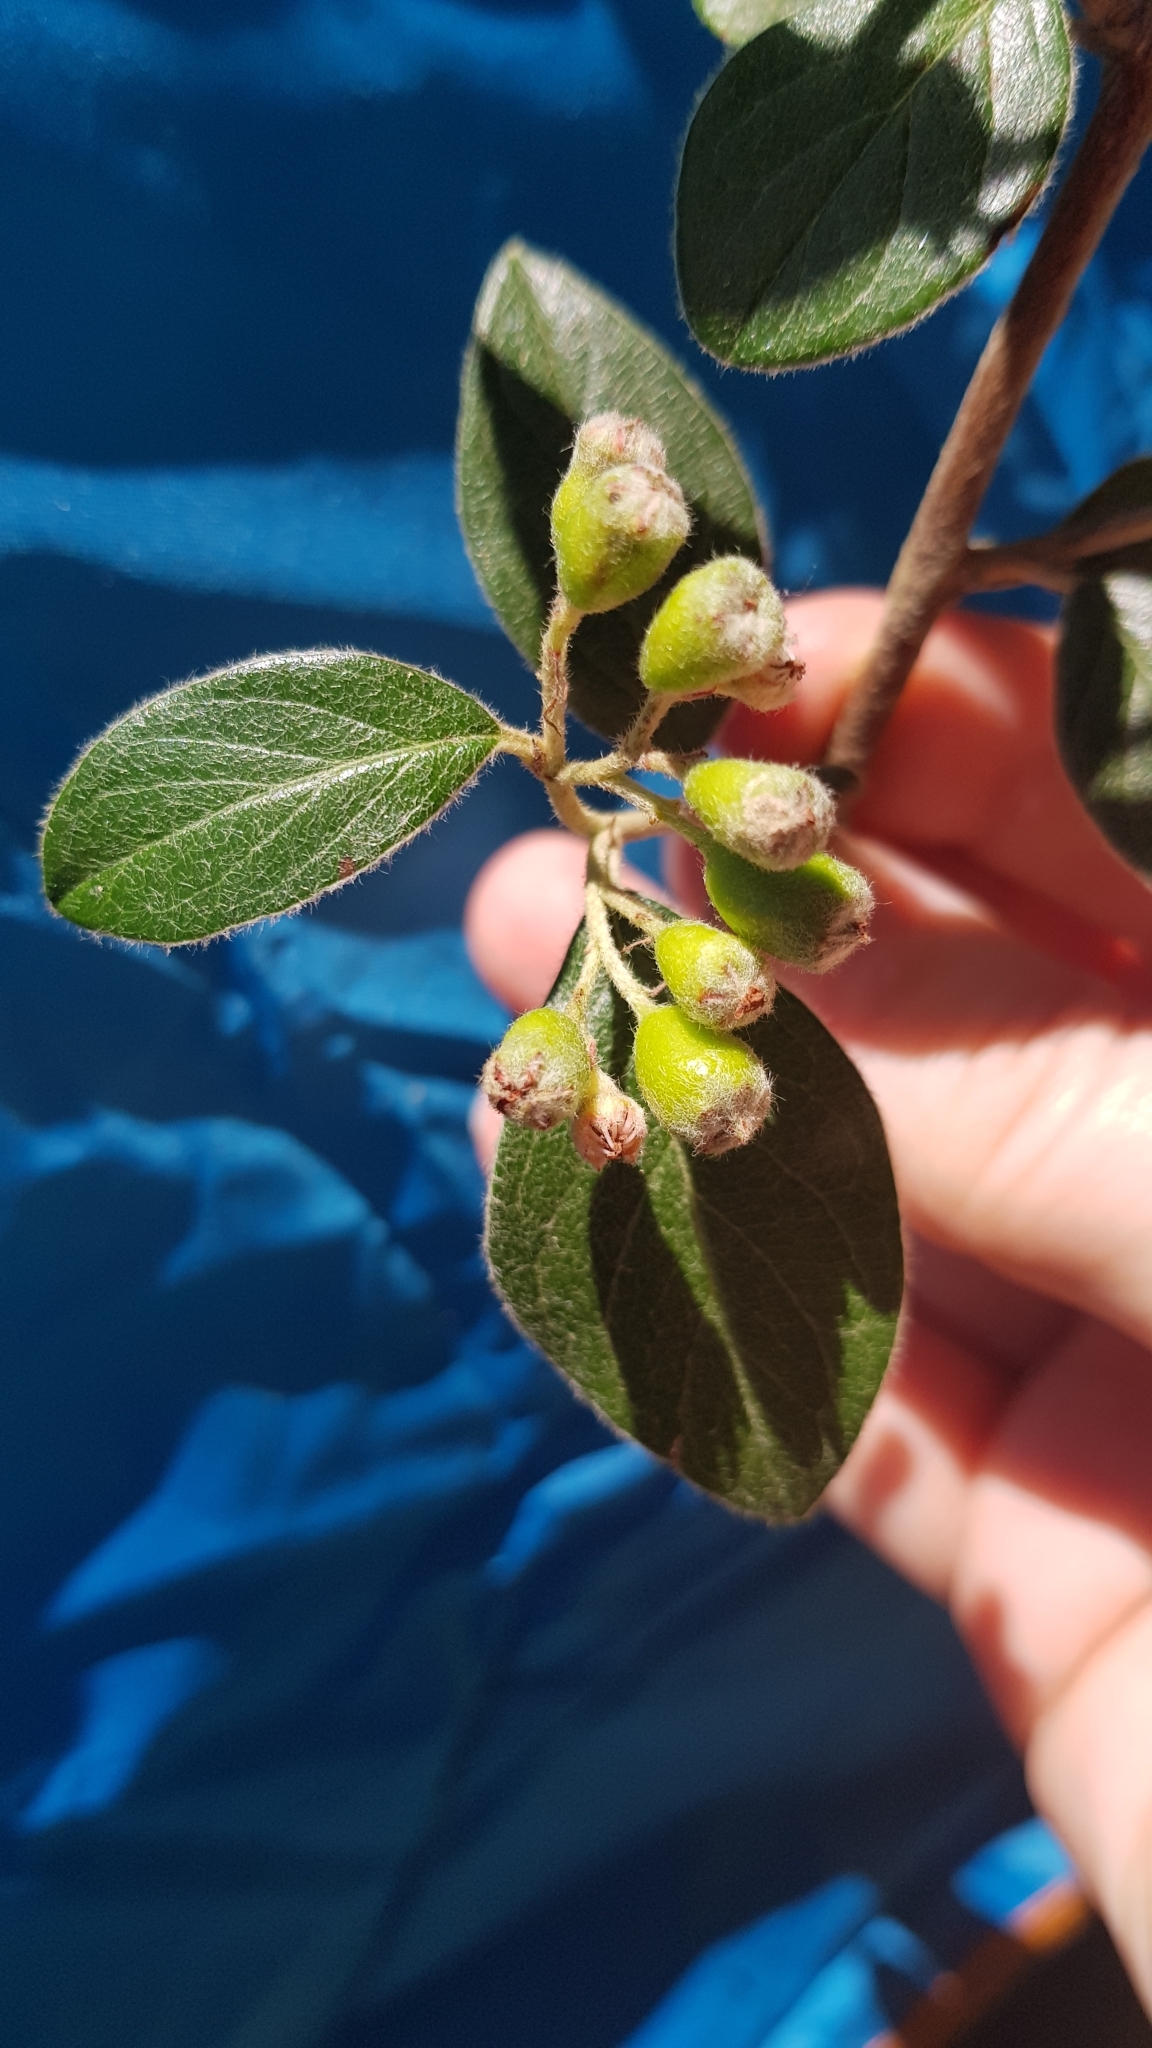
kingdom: Plantae
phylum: Tracheophyta
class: Magnoliopsida
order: Rosales
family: Rosaceae
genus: Cotoneaster
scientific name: Cotoneaster franchetii
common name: Franchet's cotoneaster
